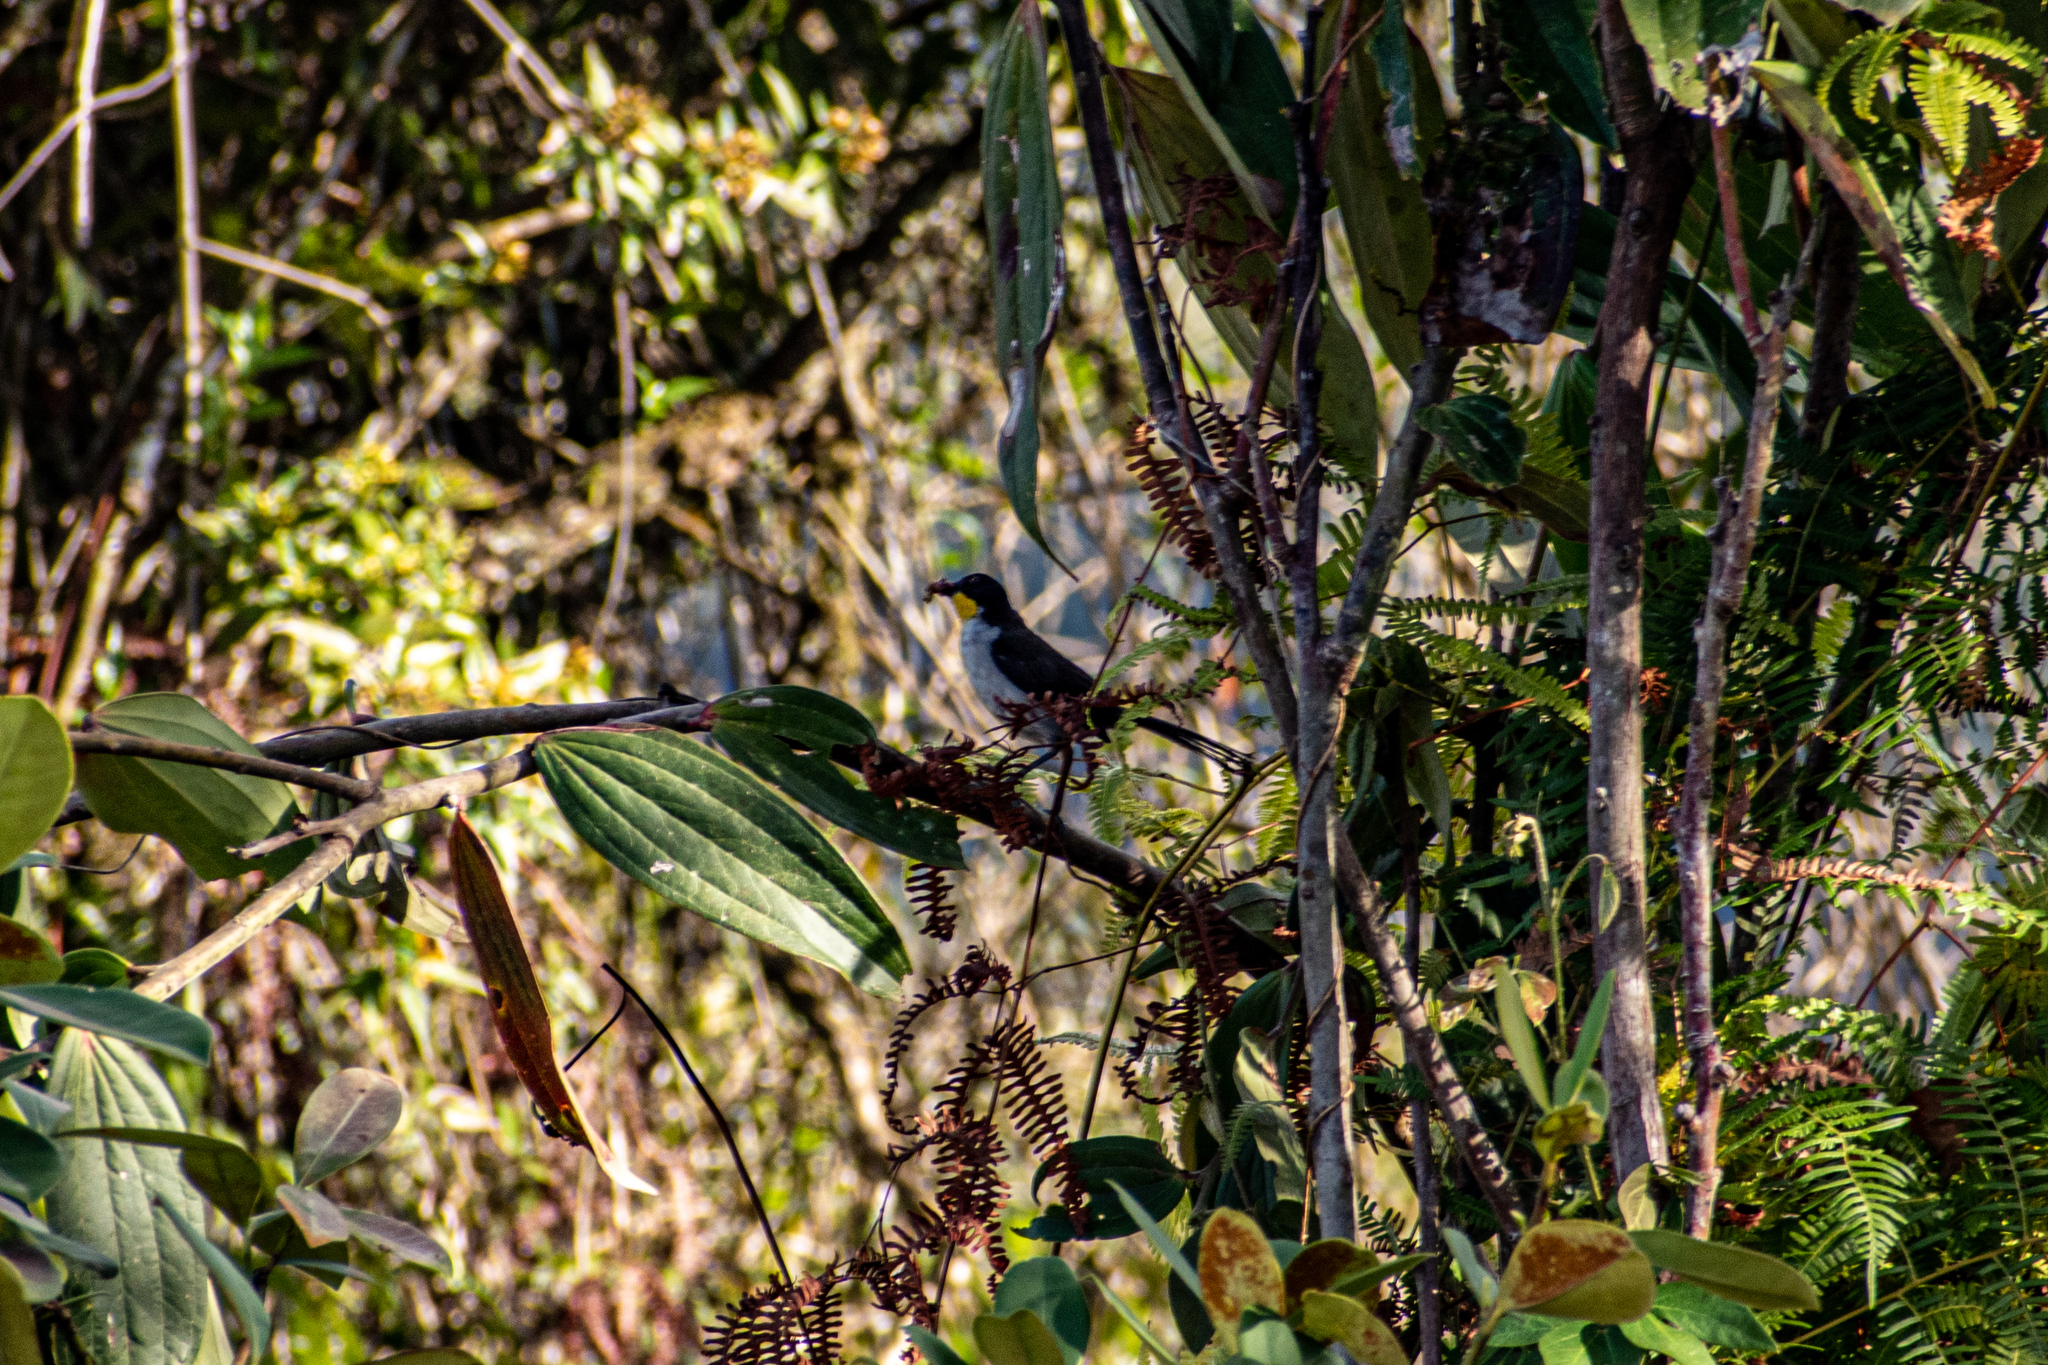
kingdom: Animalia
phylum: Chordata
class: Aves
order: Passeriformes
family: Passerellidae
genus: Atlapetes
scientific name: Atlapetes albinucha
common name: White-naped brush-finch
